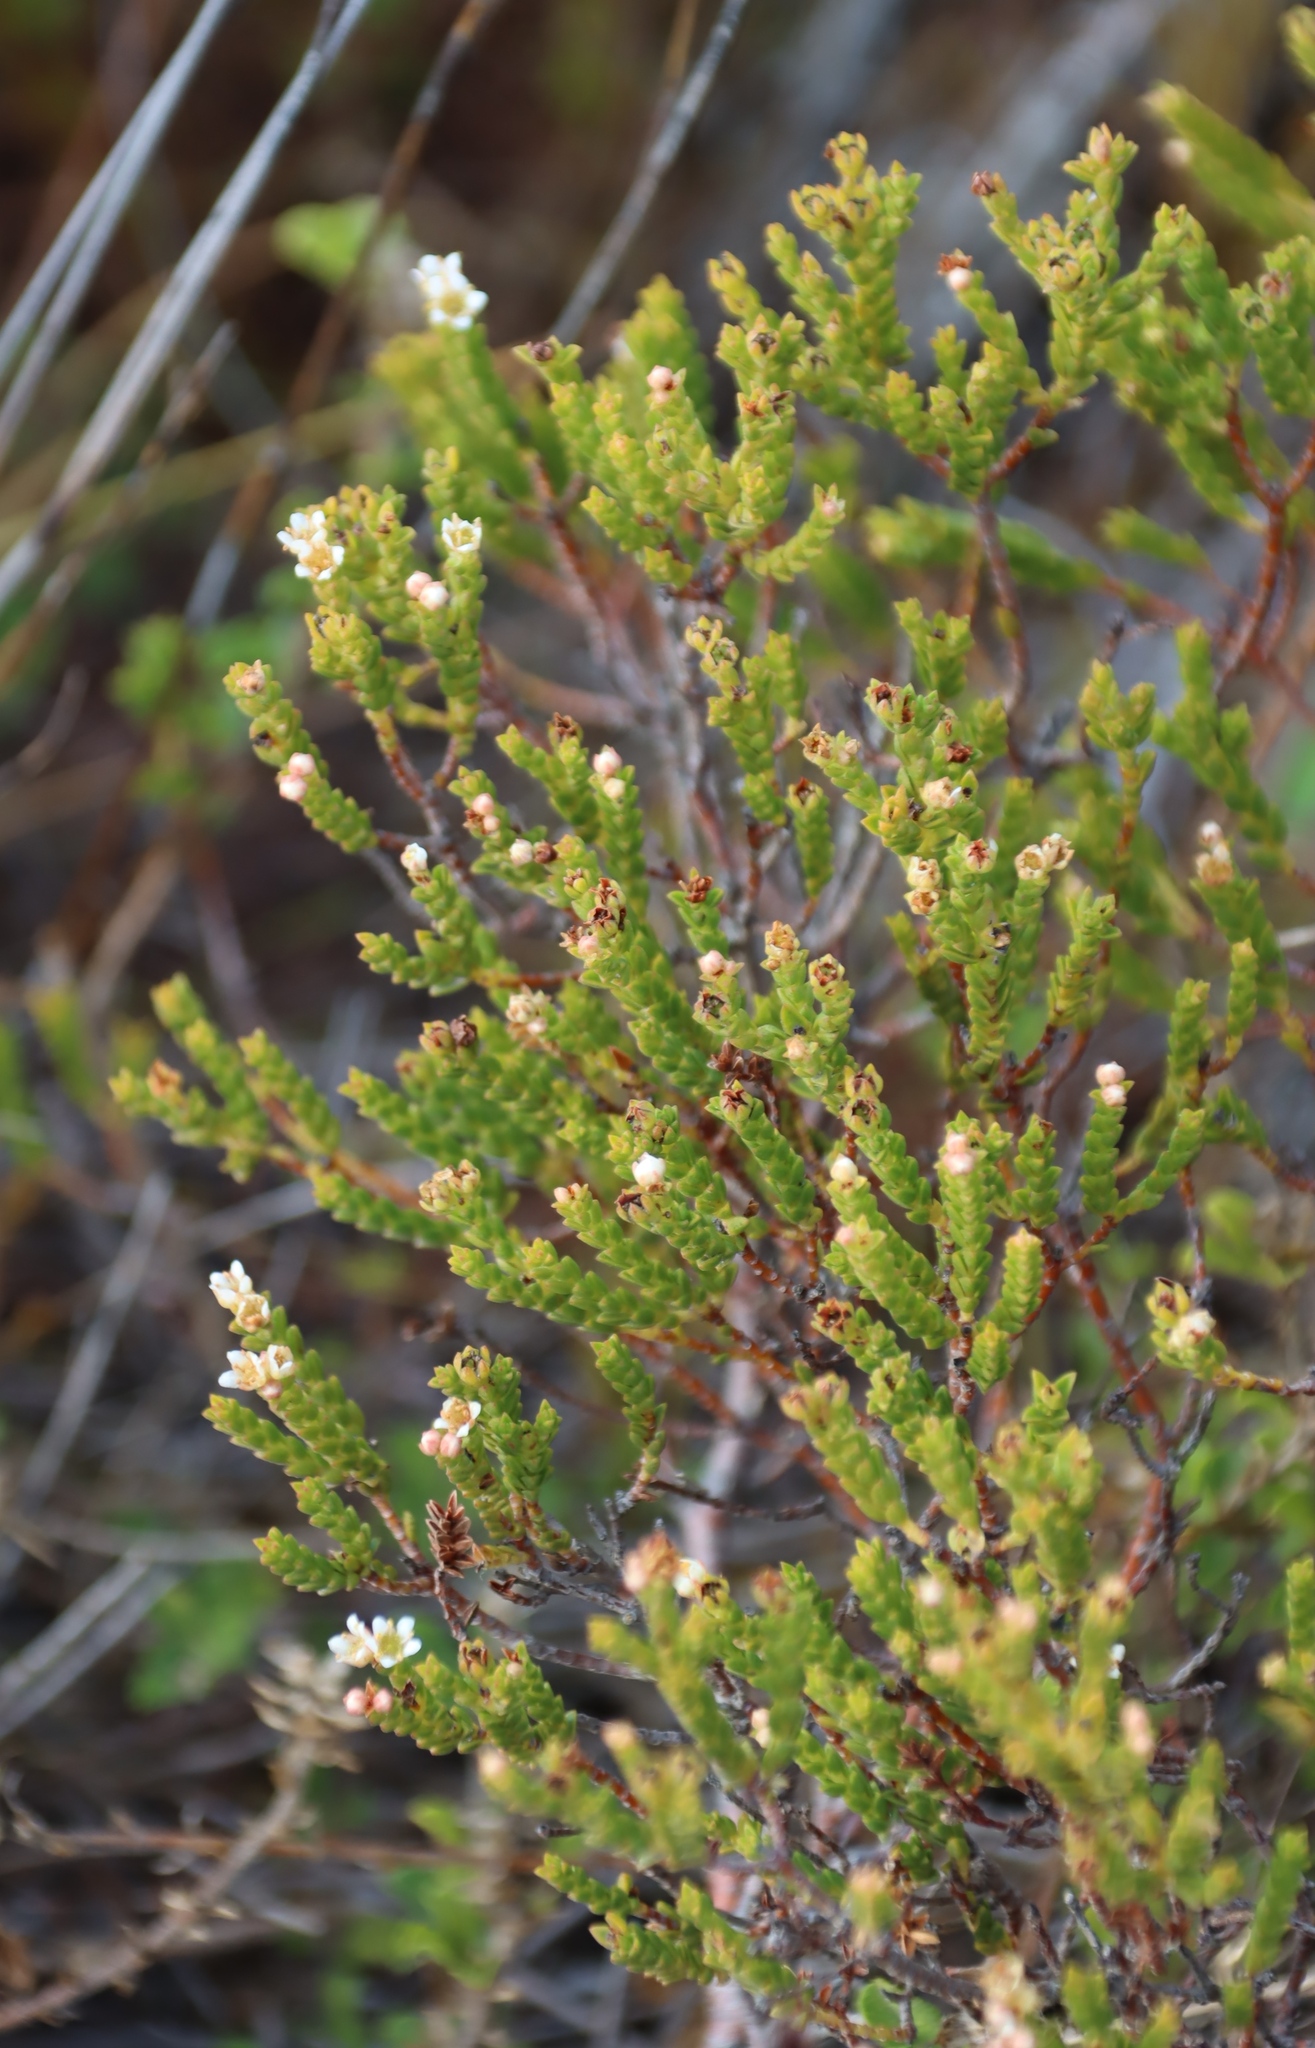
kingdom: Plantae
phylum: Tracheophyta
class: Magnoliopsida
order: Sapindales
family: Rutaceae
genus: Diosma
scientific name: Diosma oppositifolia
